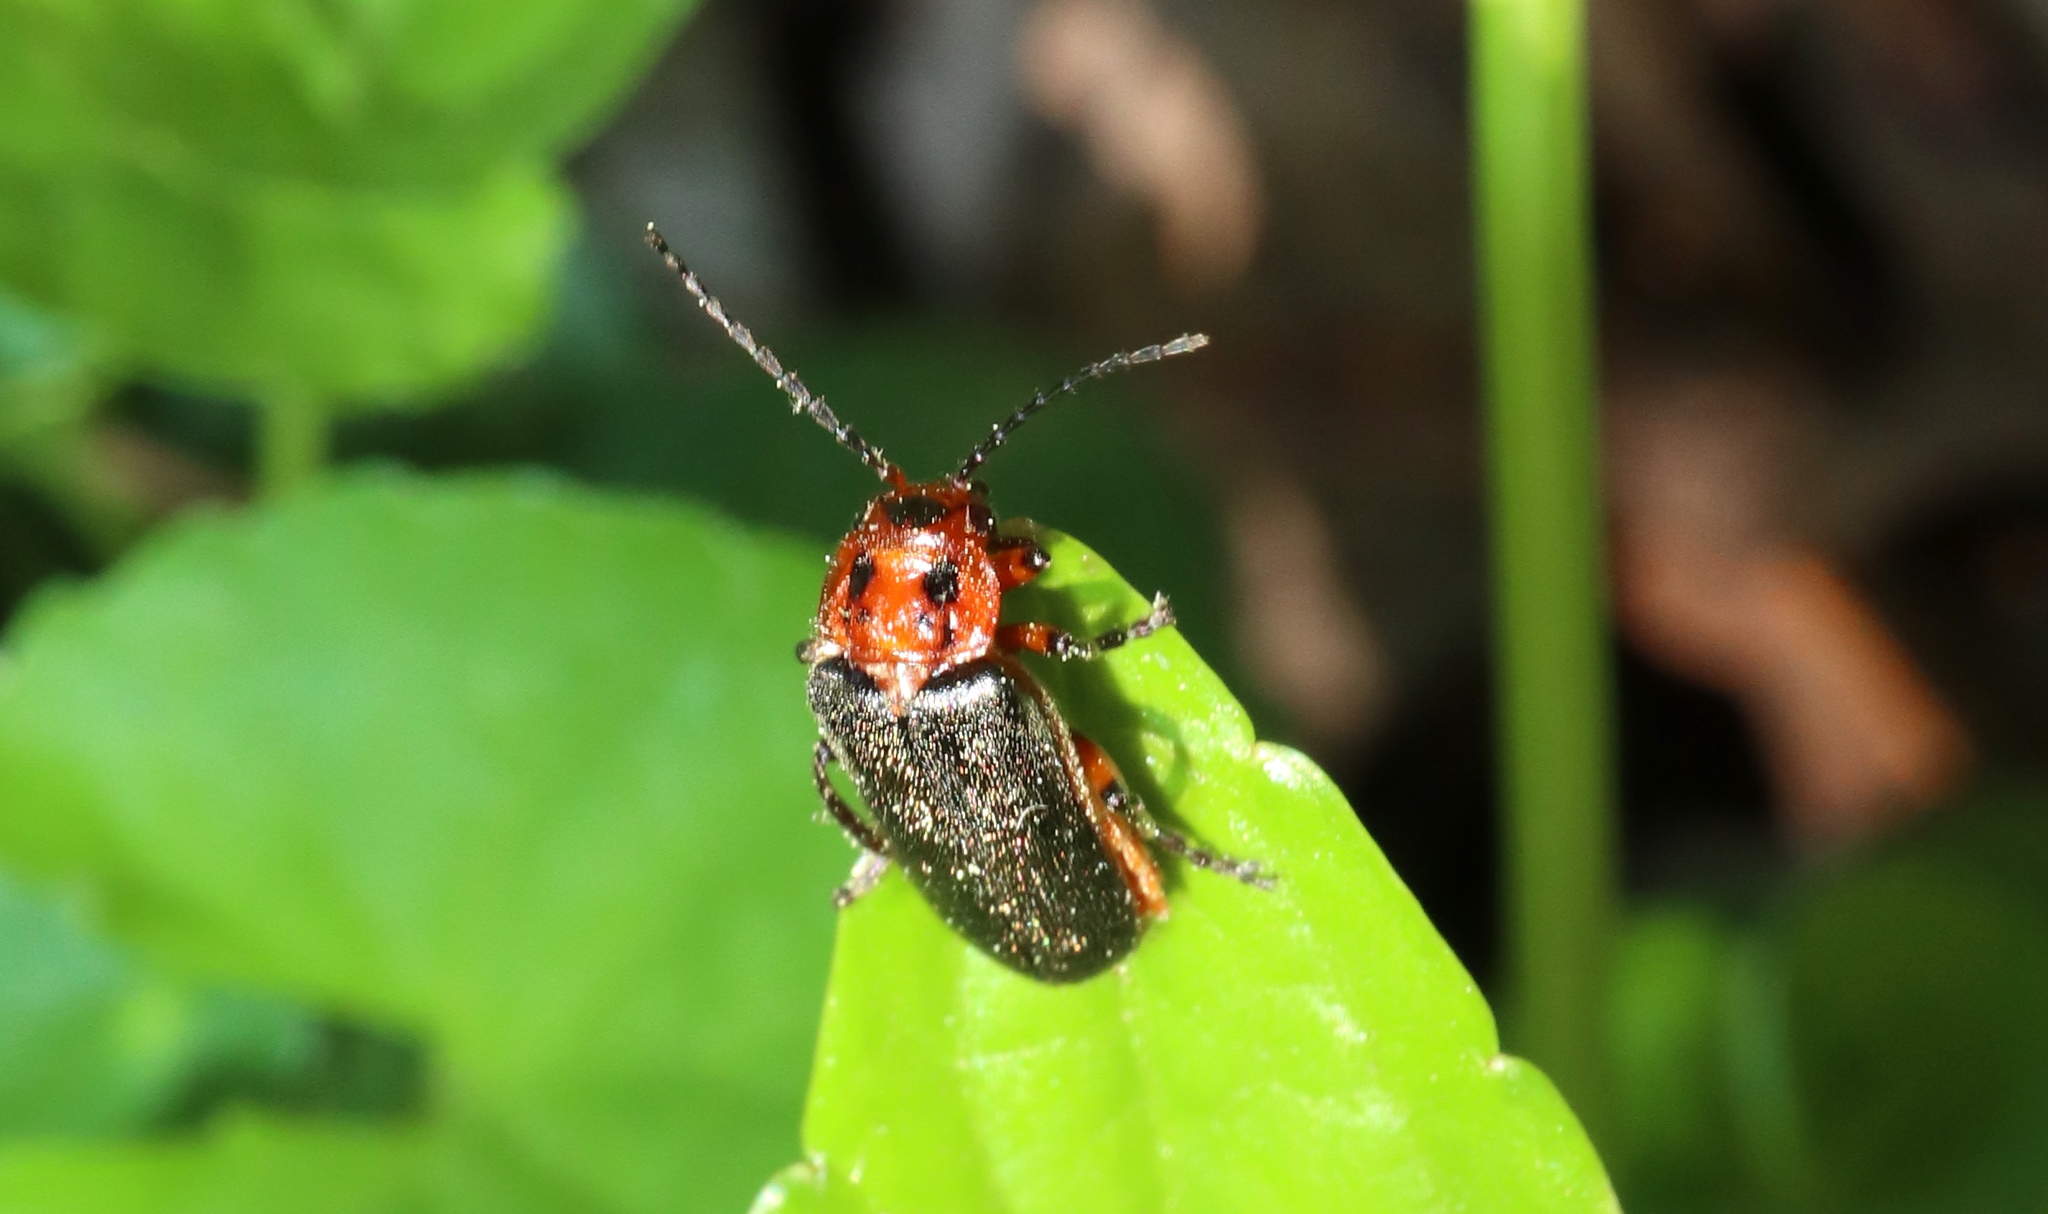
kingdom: Animalia
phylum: Arthropoda
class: Insecta
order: Coleoptera
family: Cantharidae
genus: Atalantycha
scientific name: Atalantycha bilineata
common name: Two-lined leatherwing
